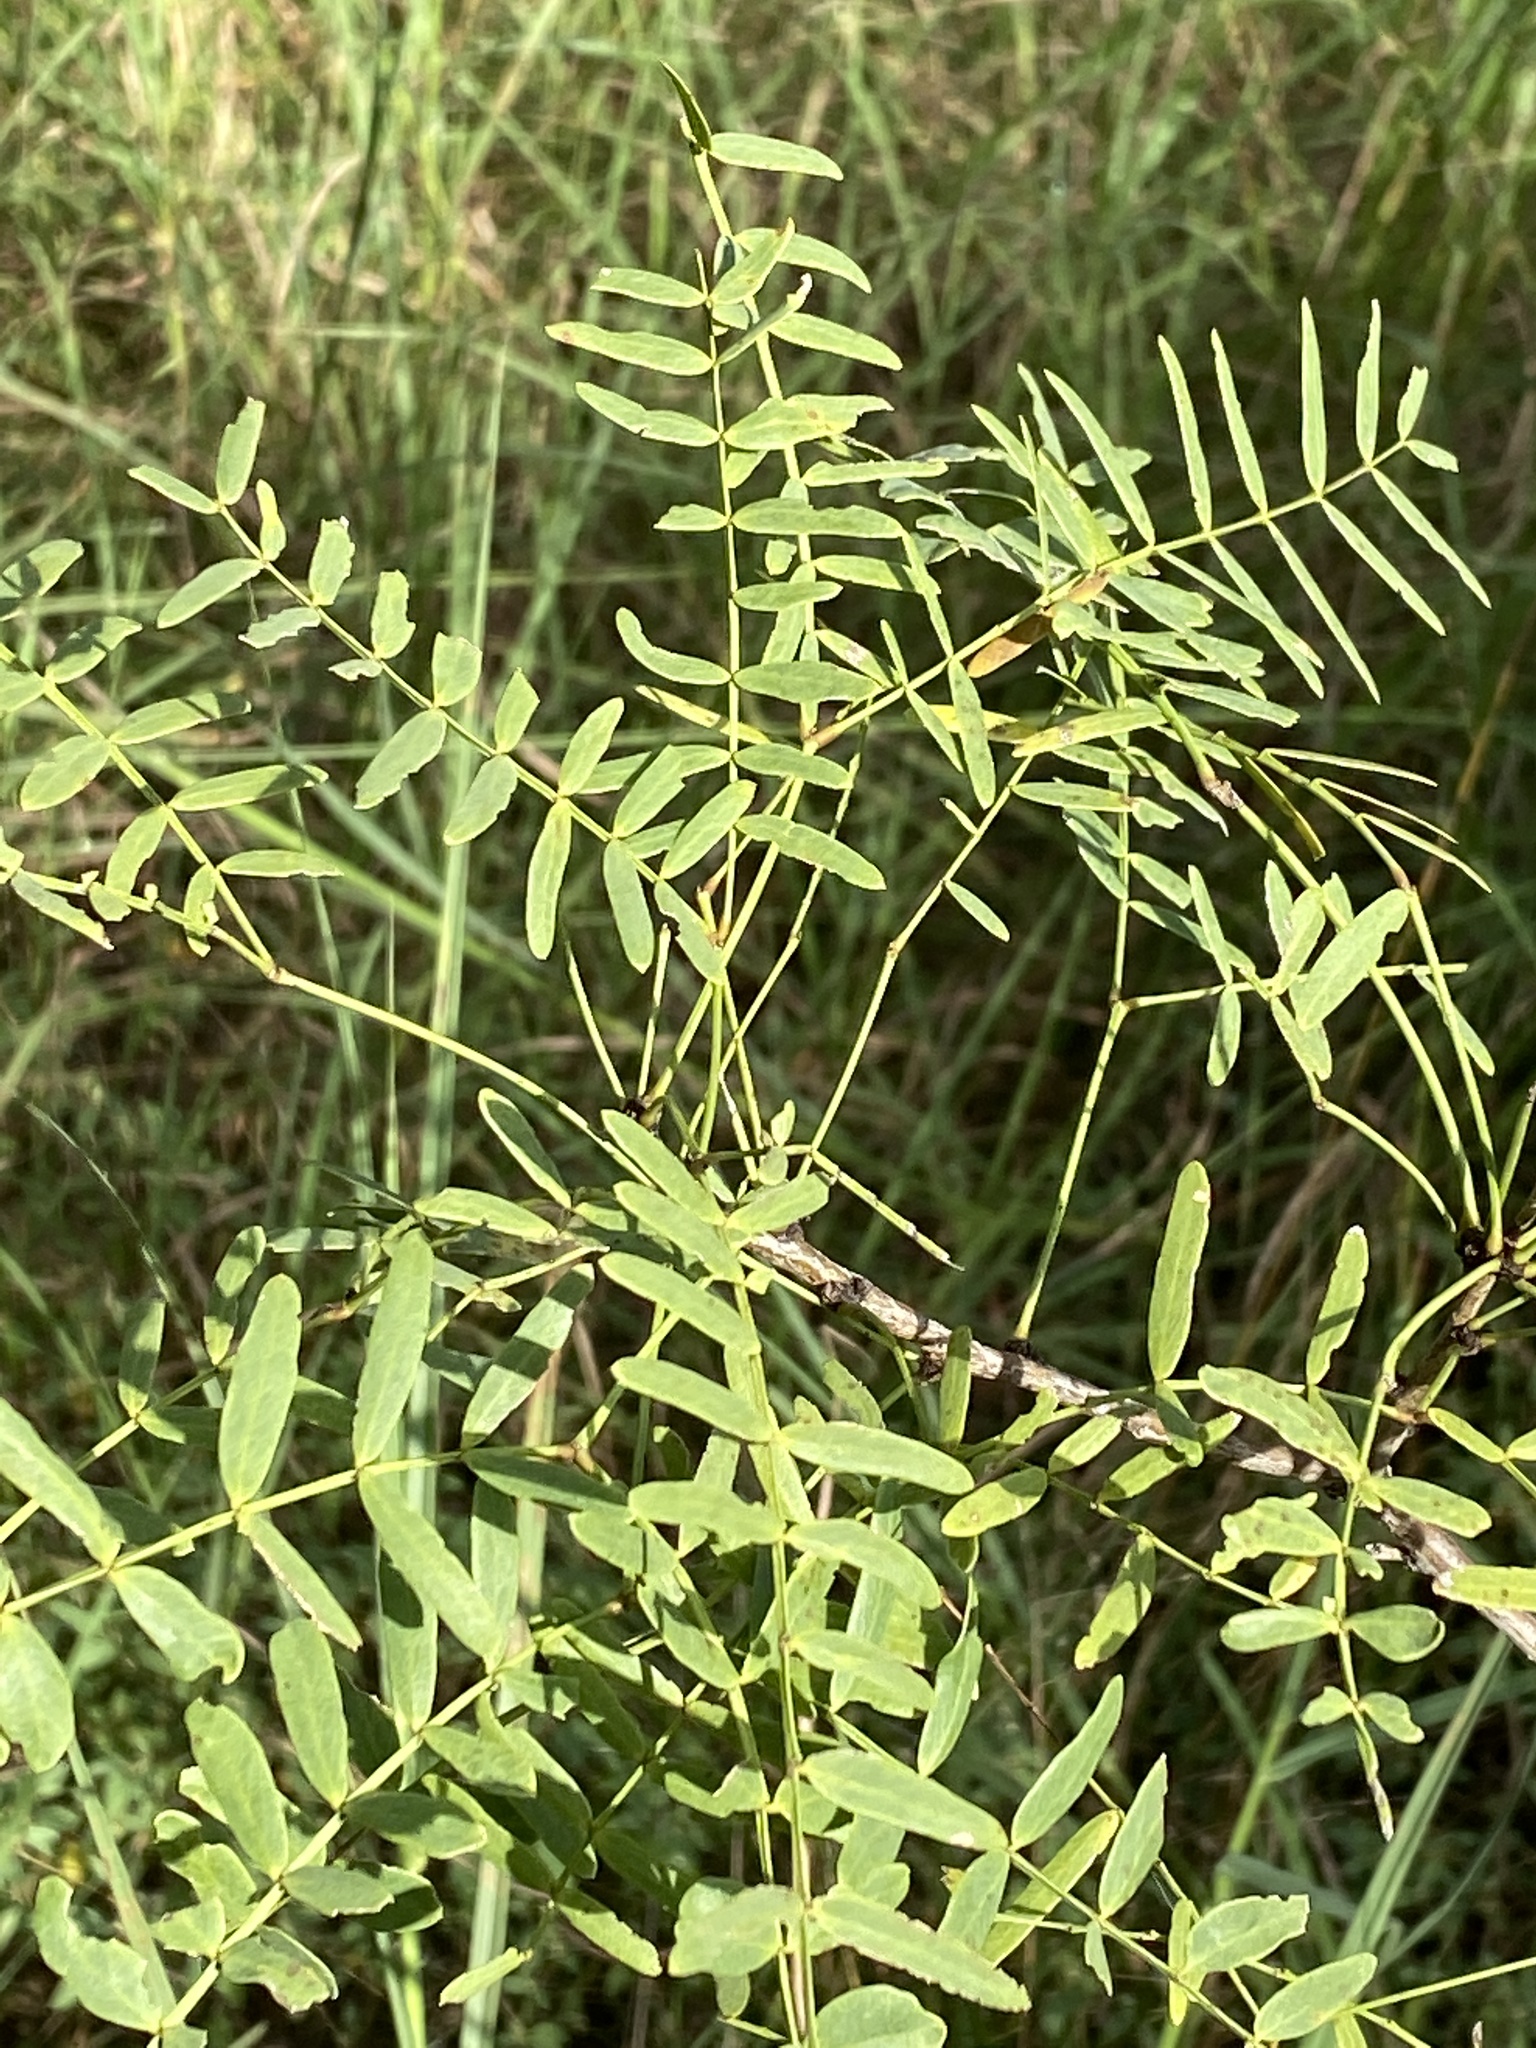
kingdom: Plantae
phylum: Tracheophyta
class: Magnoliopsida
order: Fabales
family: Fabaceae
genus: Prosopis
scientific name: Prosopis glandulosa
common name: Honey mesquite
